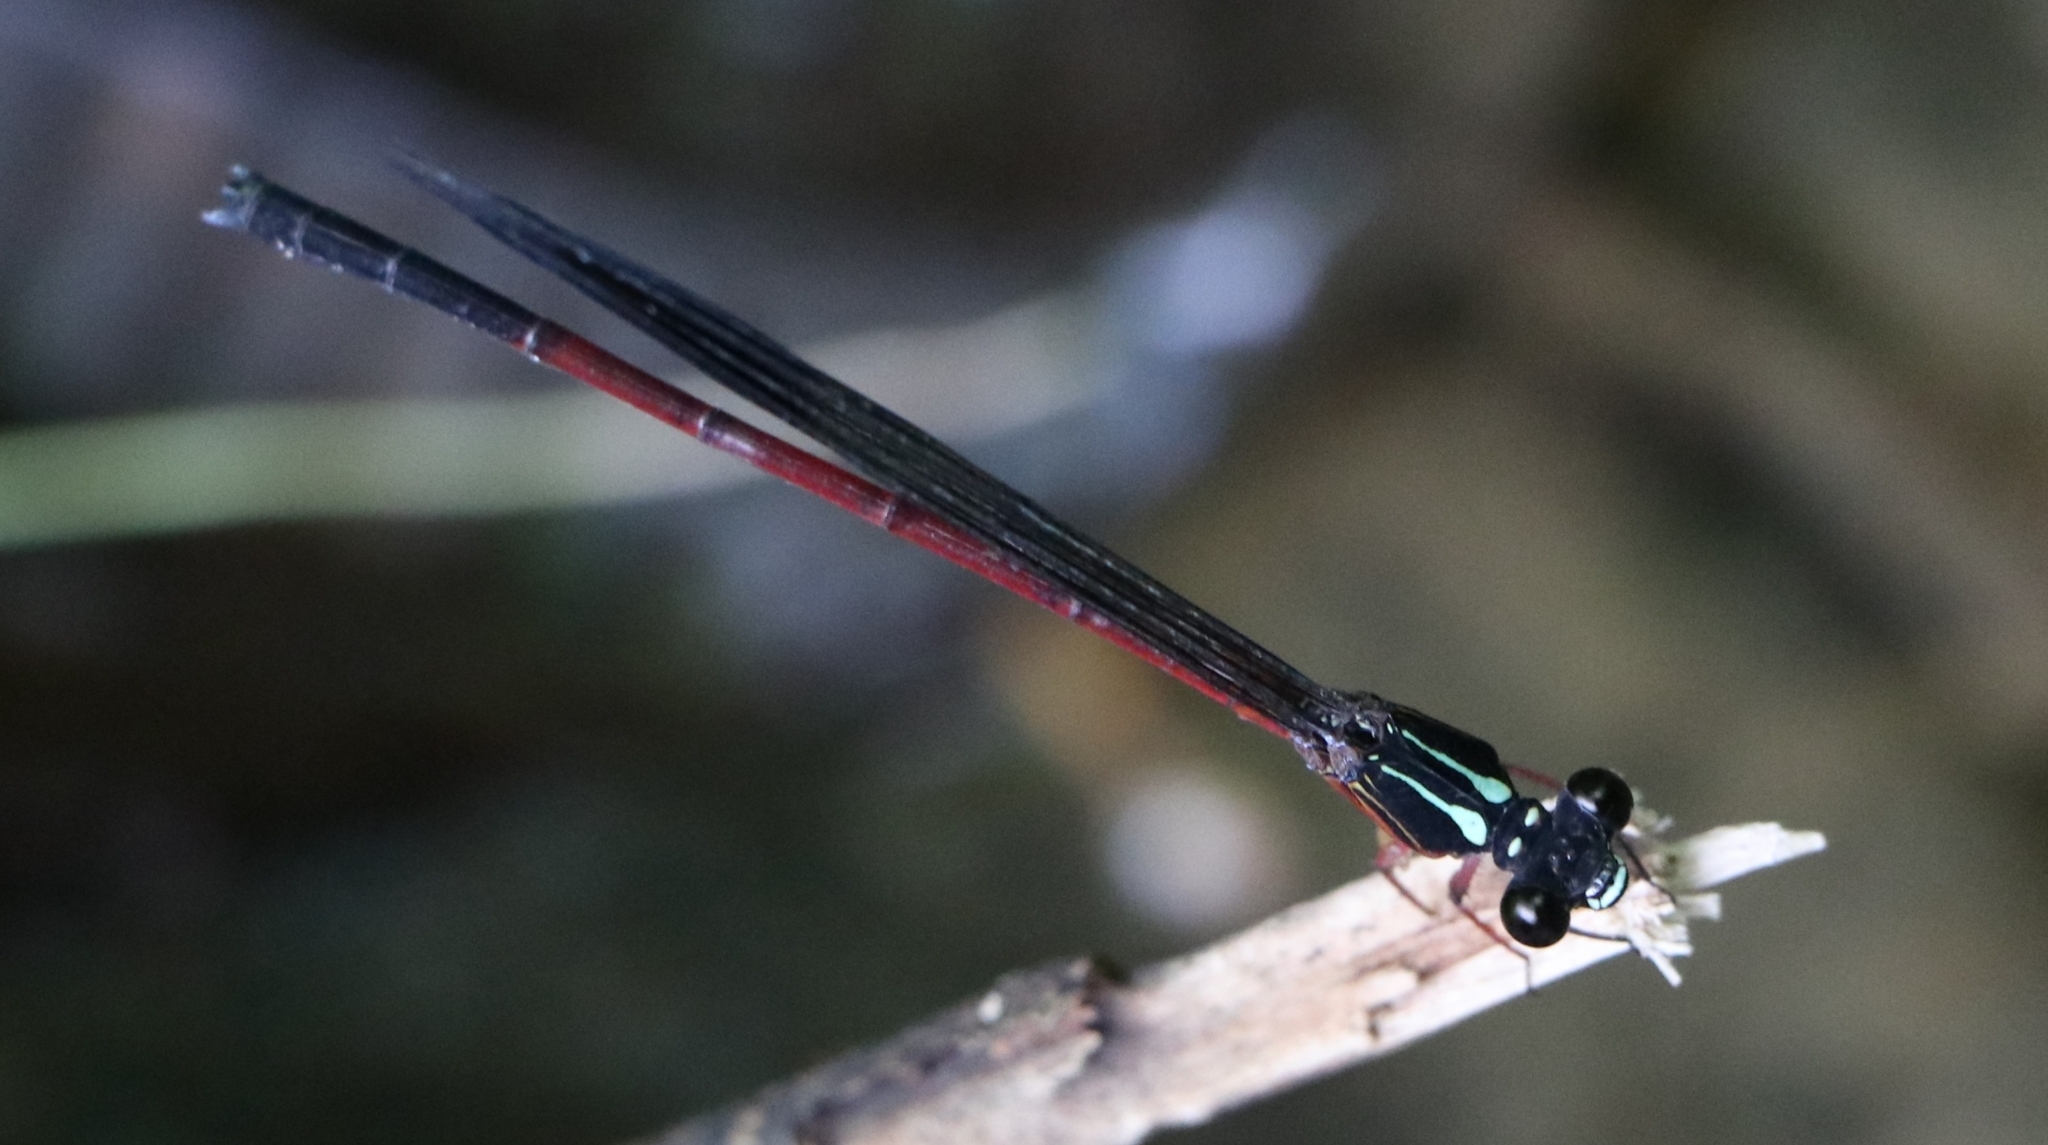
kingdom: Animalia
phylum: Arthropoda
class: Insecta
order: Odonata
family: Euphaeidae
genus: Euphaea
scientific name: Euphaea fraseri
